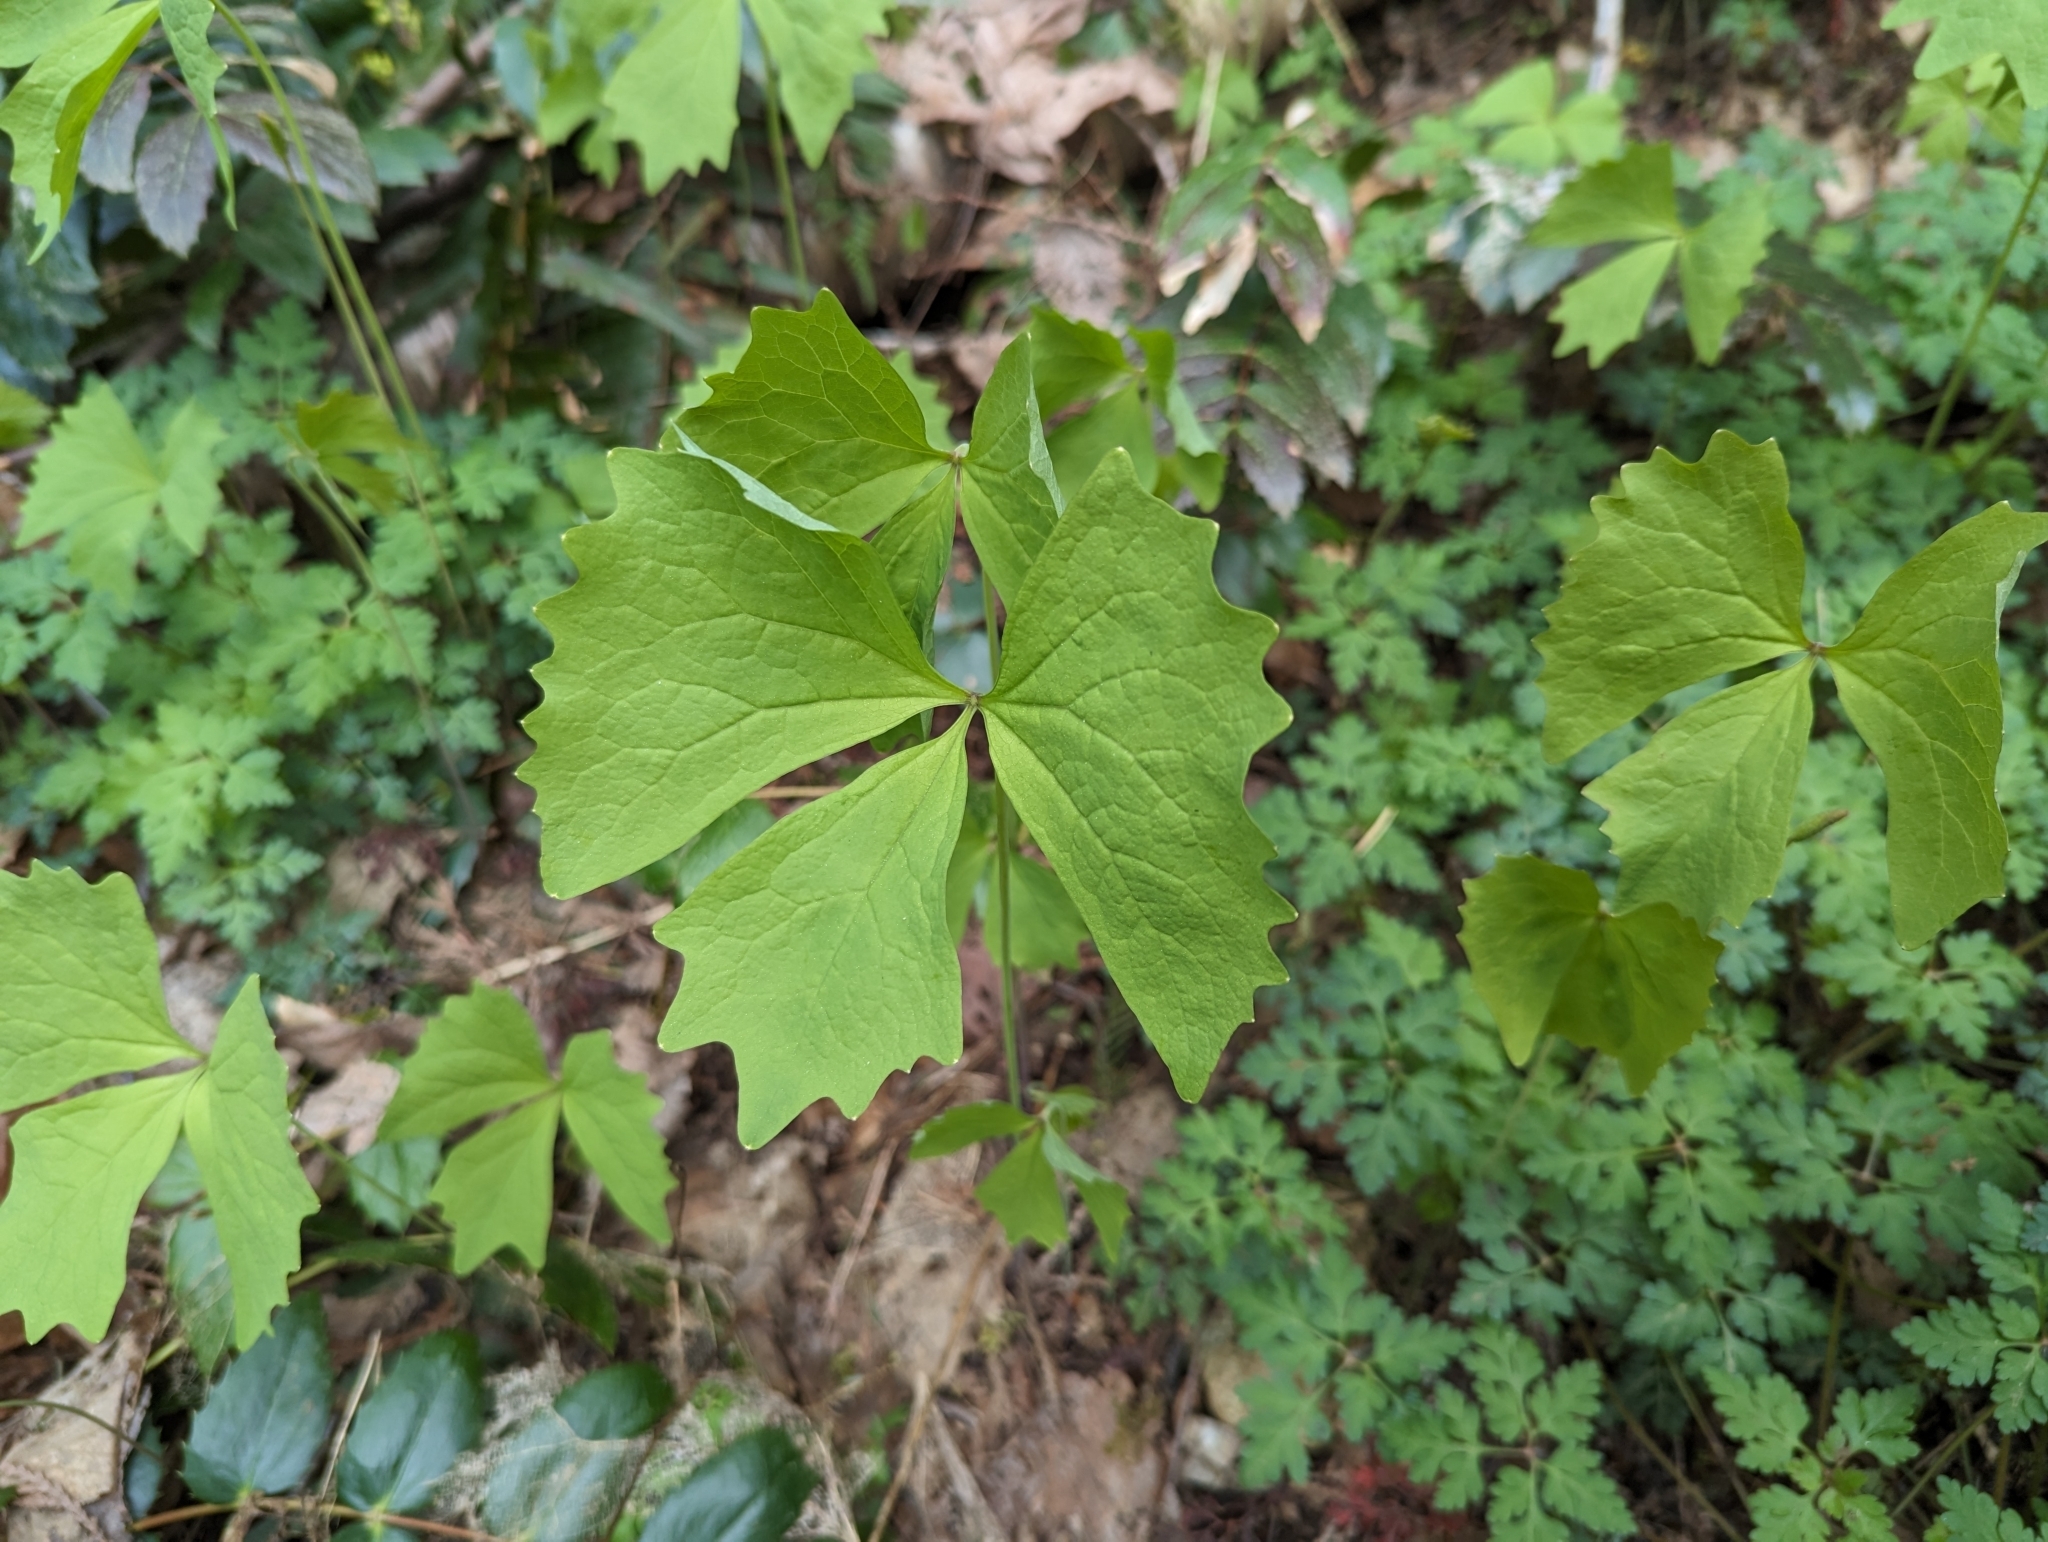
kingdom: Plantae
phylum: Tracheophyta
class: Magnoliopsida
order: Ranunculales
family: Berberidaceae
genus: Achlys
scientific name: Achlys triphylla
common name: Vanilla-leaf
